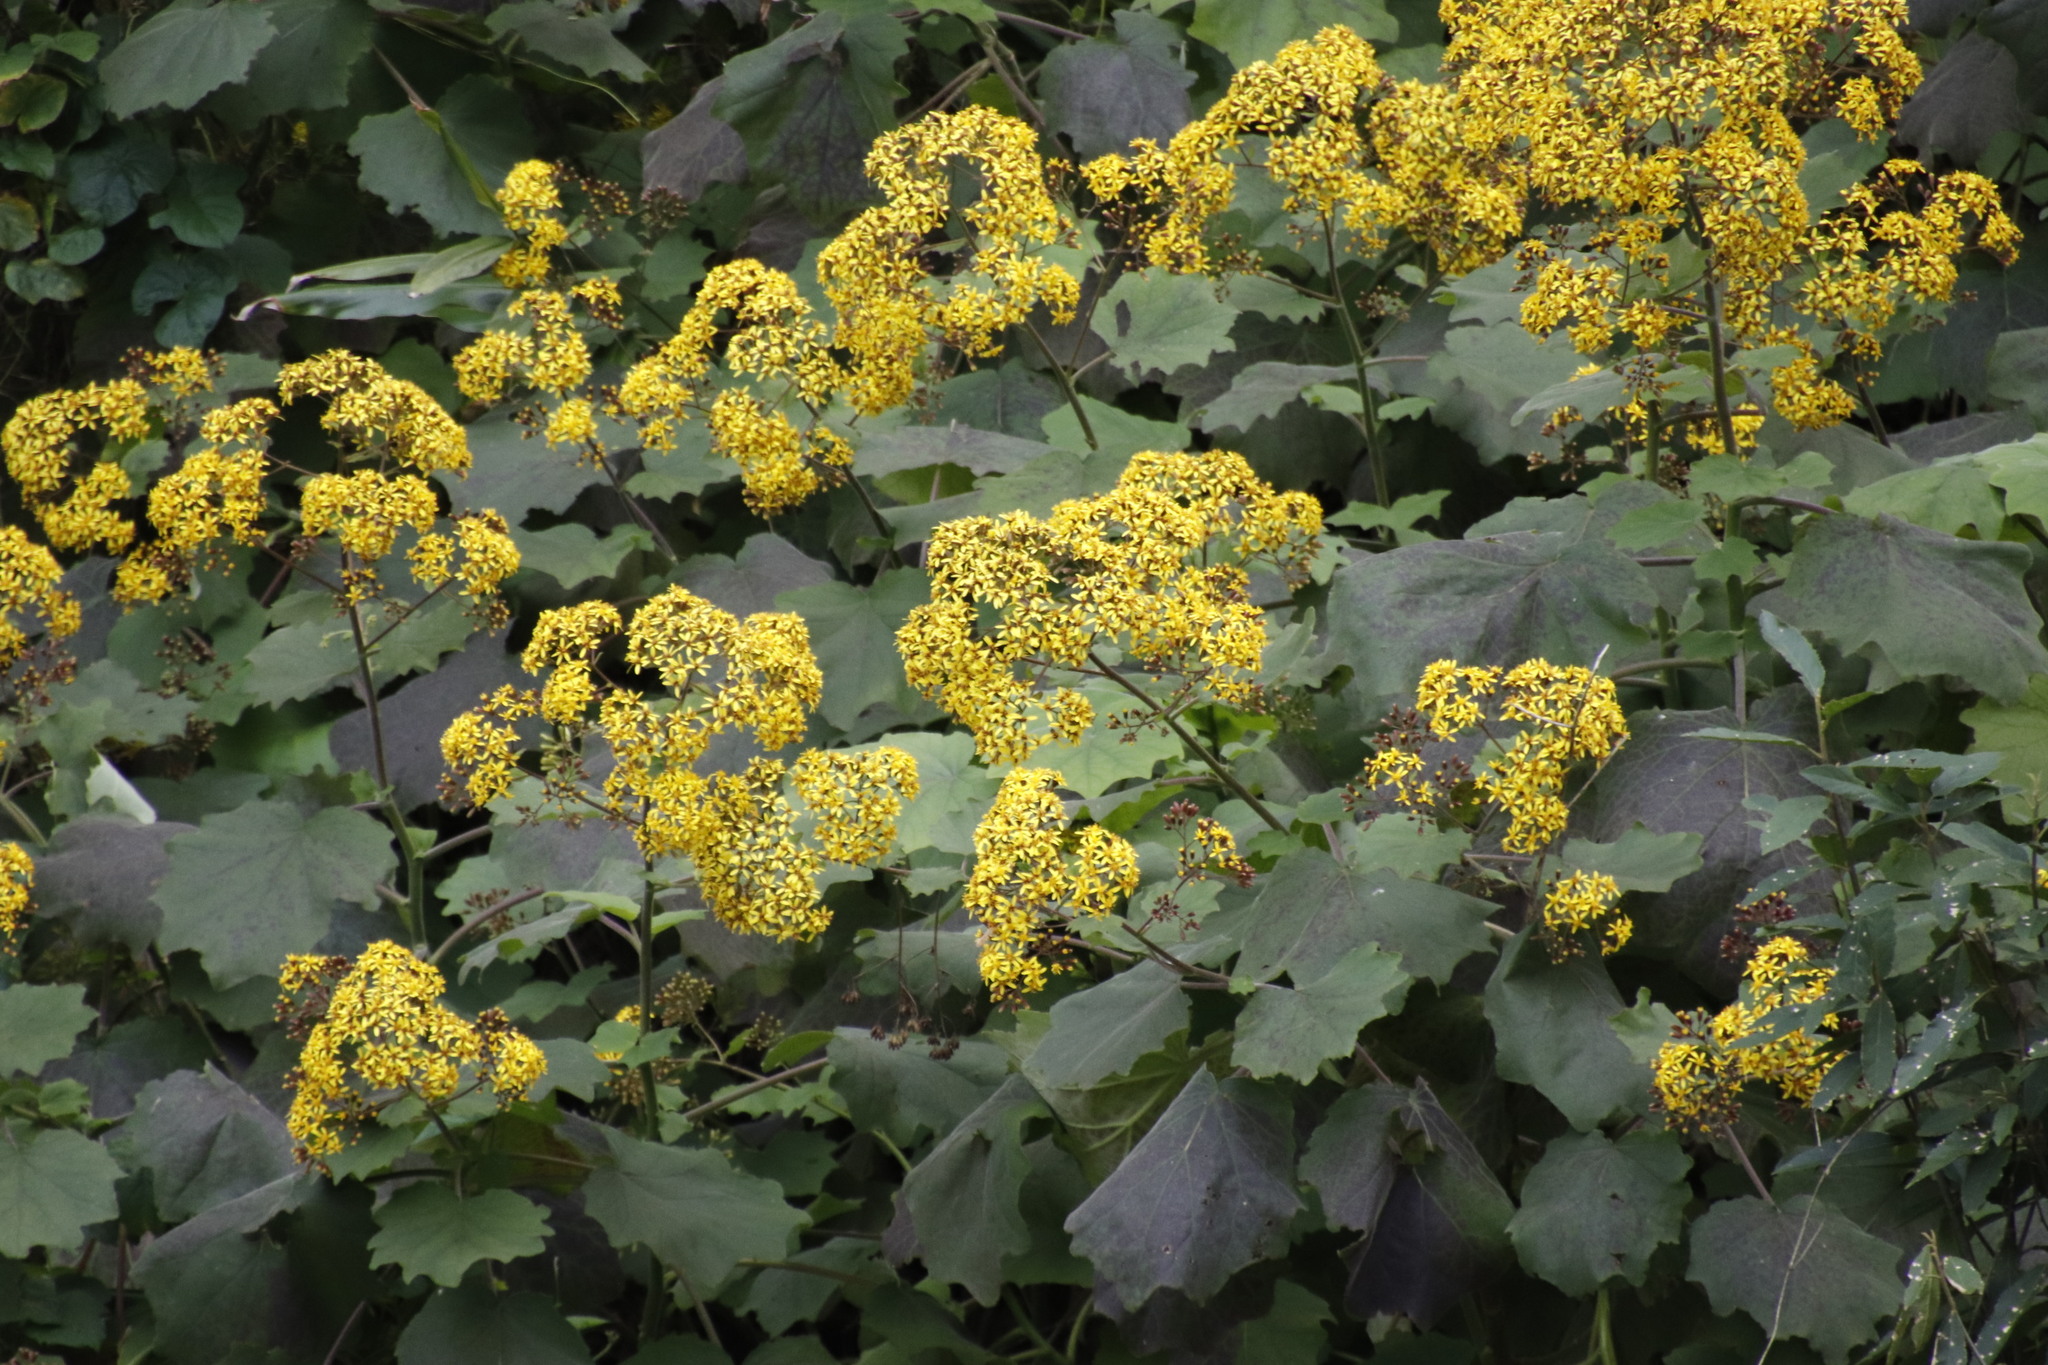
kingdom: Plantae
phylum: Tracheophyta
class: Magnoliopsida
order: Asterales
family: Asteraceae
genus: Roldana
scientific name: Roldana petasitis
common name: California-geranium
